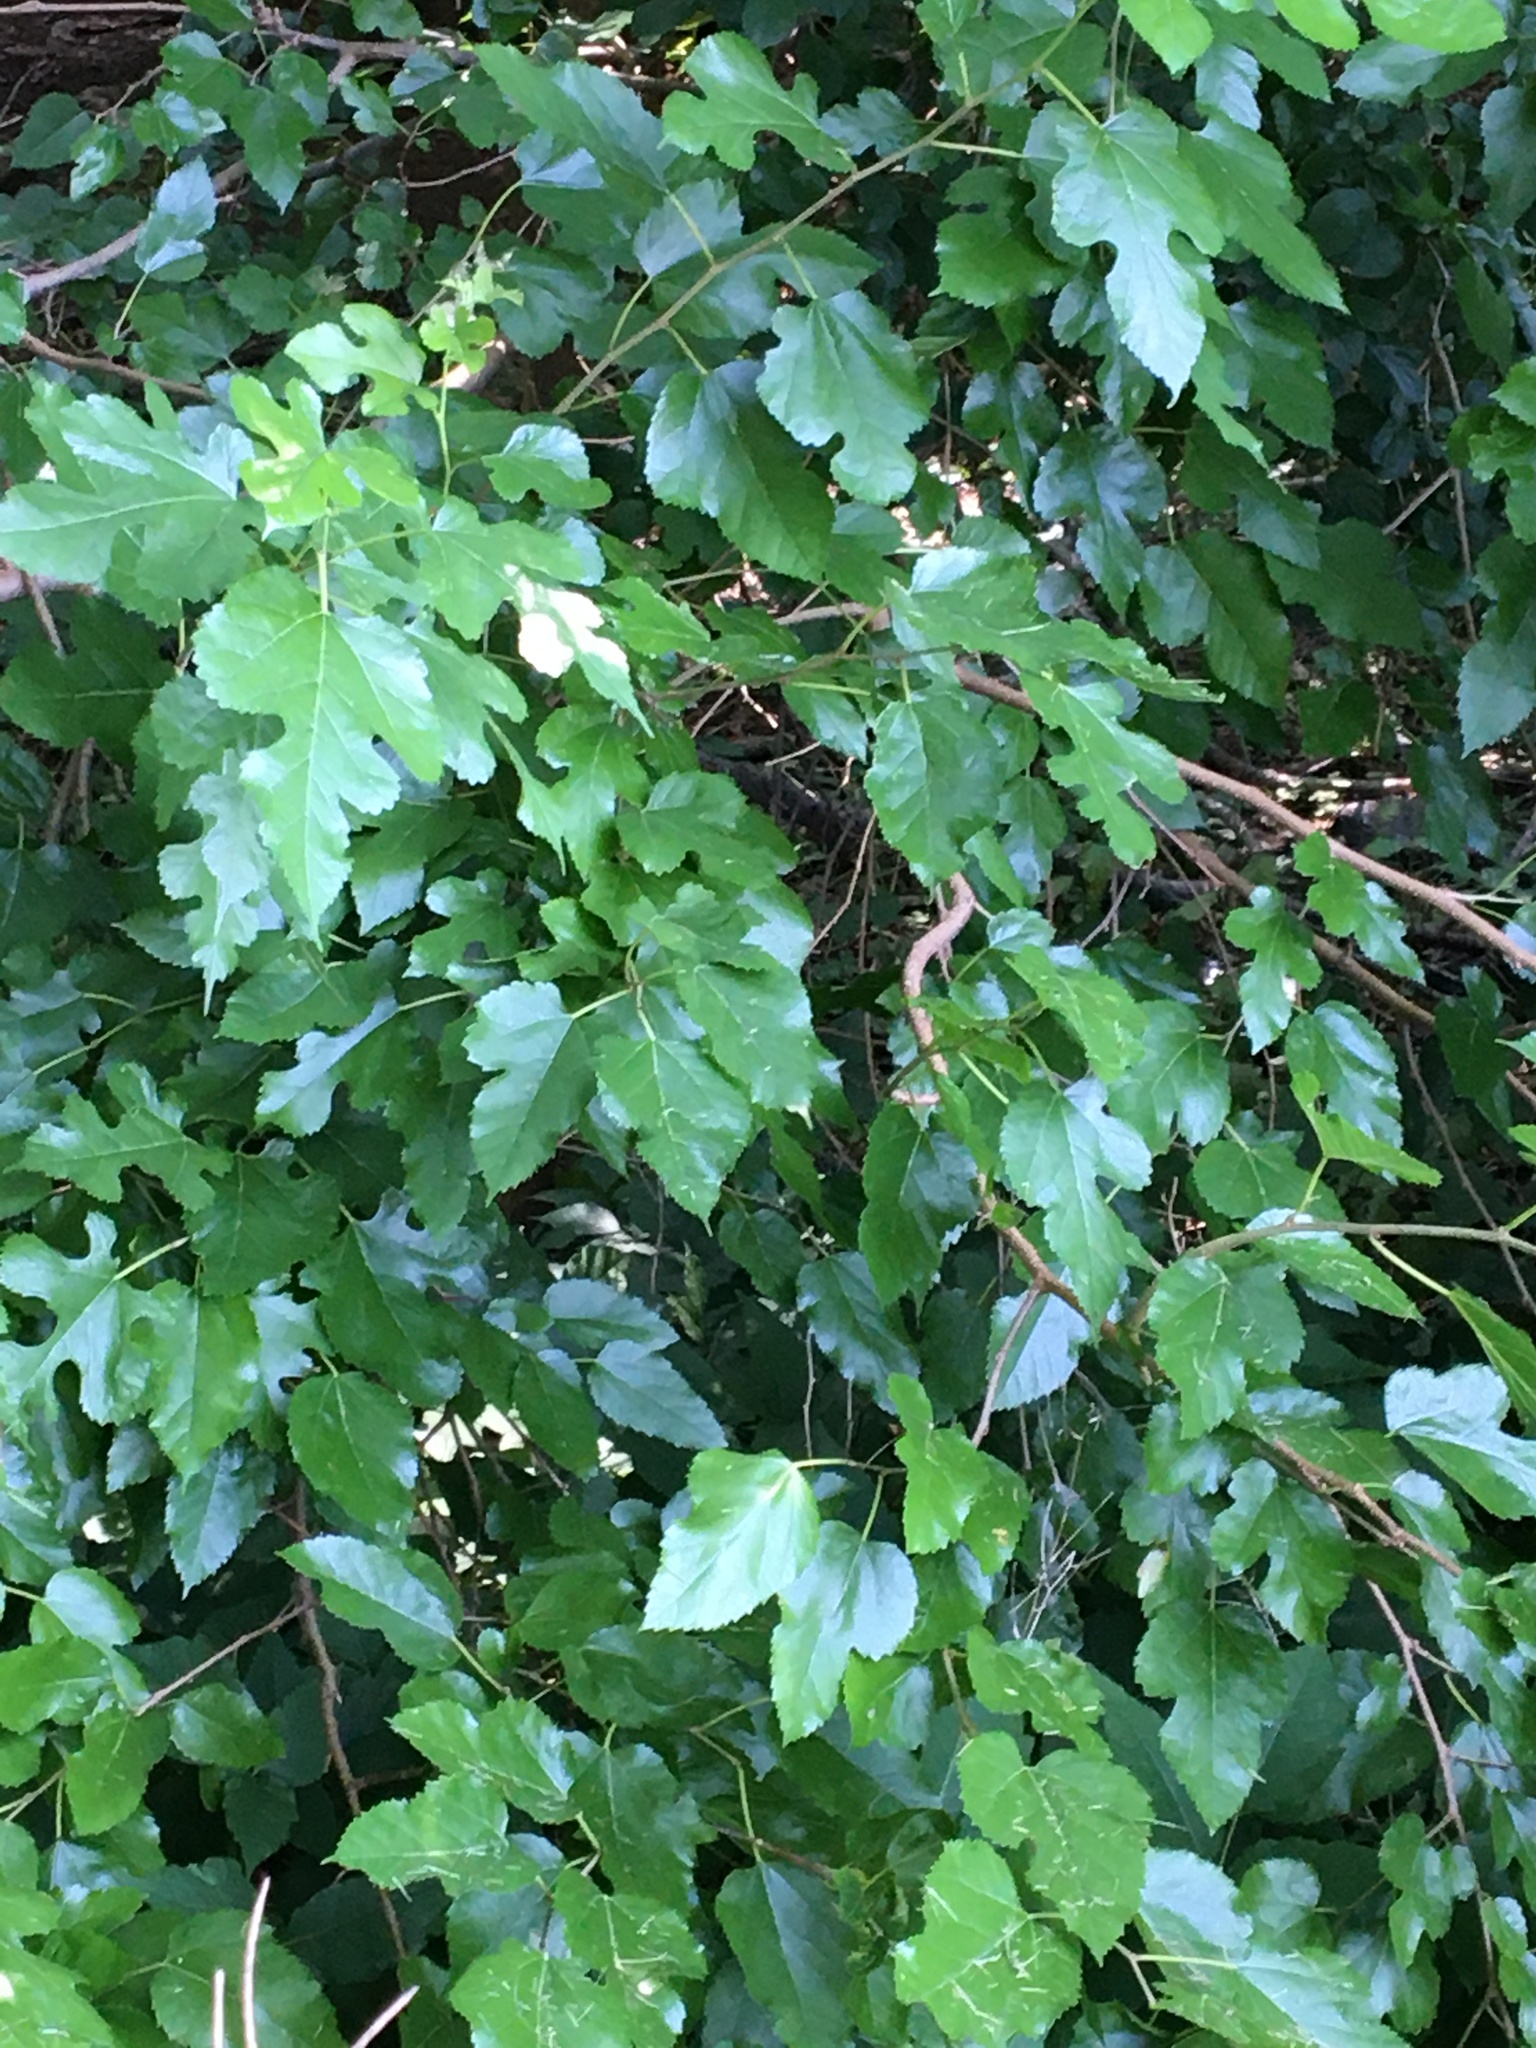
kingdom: Plantae
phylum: Tracheophyta
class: Magnoliopsida
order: Rosales
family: Moraceae
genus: Morus
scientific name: Morus alba
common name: White mulberry
